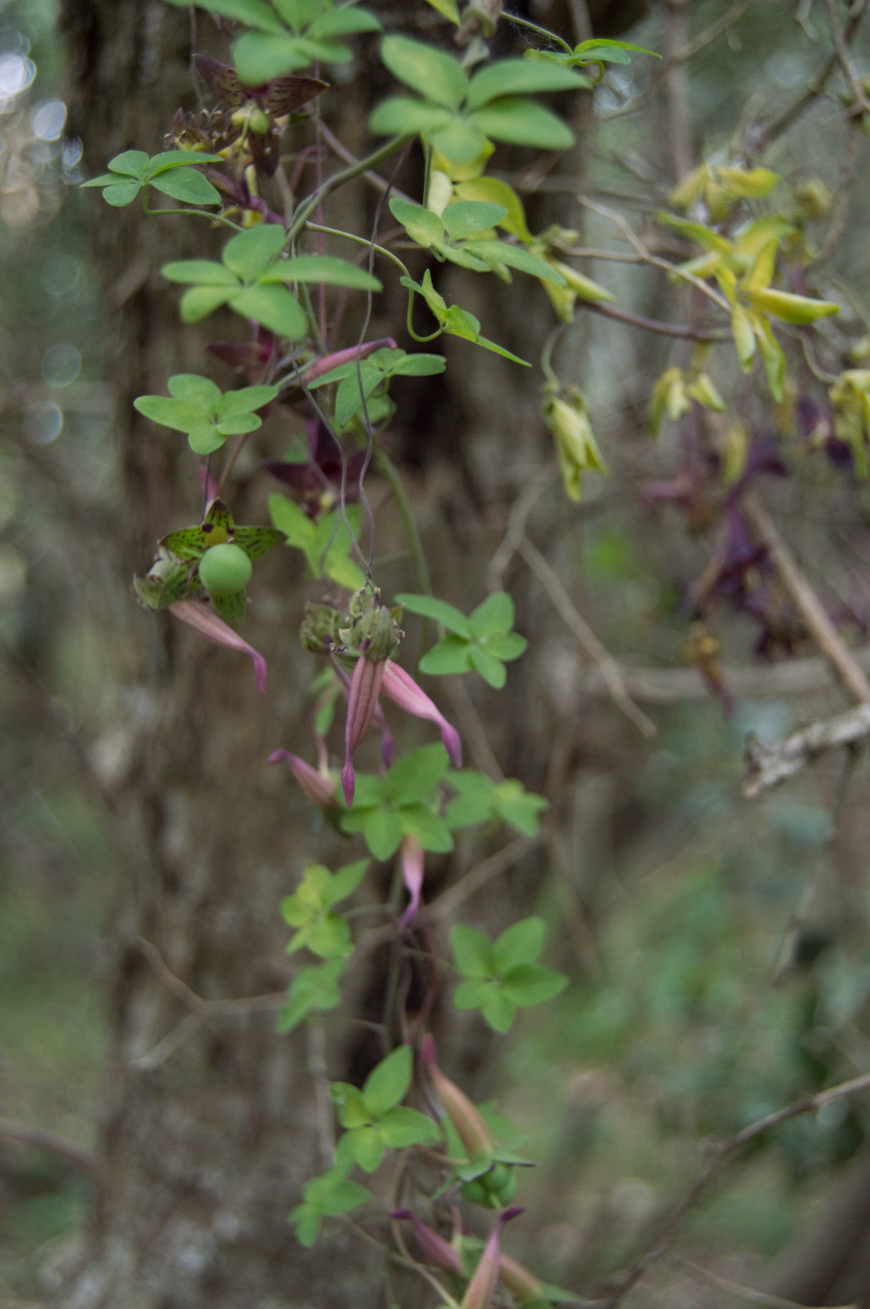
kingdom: Plantae
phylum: Tracheophyta
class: Magnoliopsida
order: Brassicales
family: Tropaeolaceae
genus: Tropaeolum
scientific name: Tropaeolum pentaphyllum
